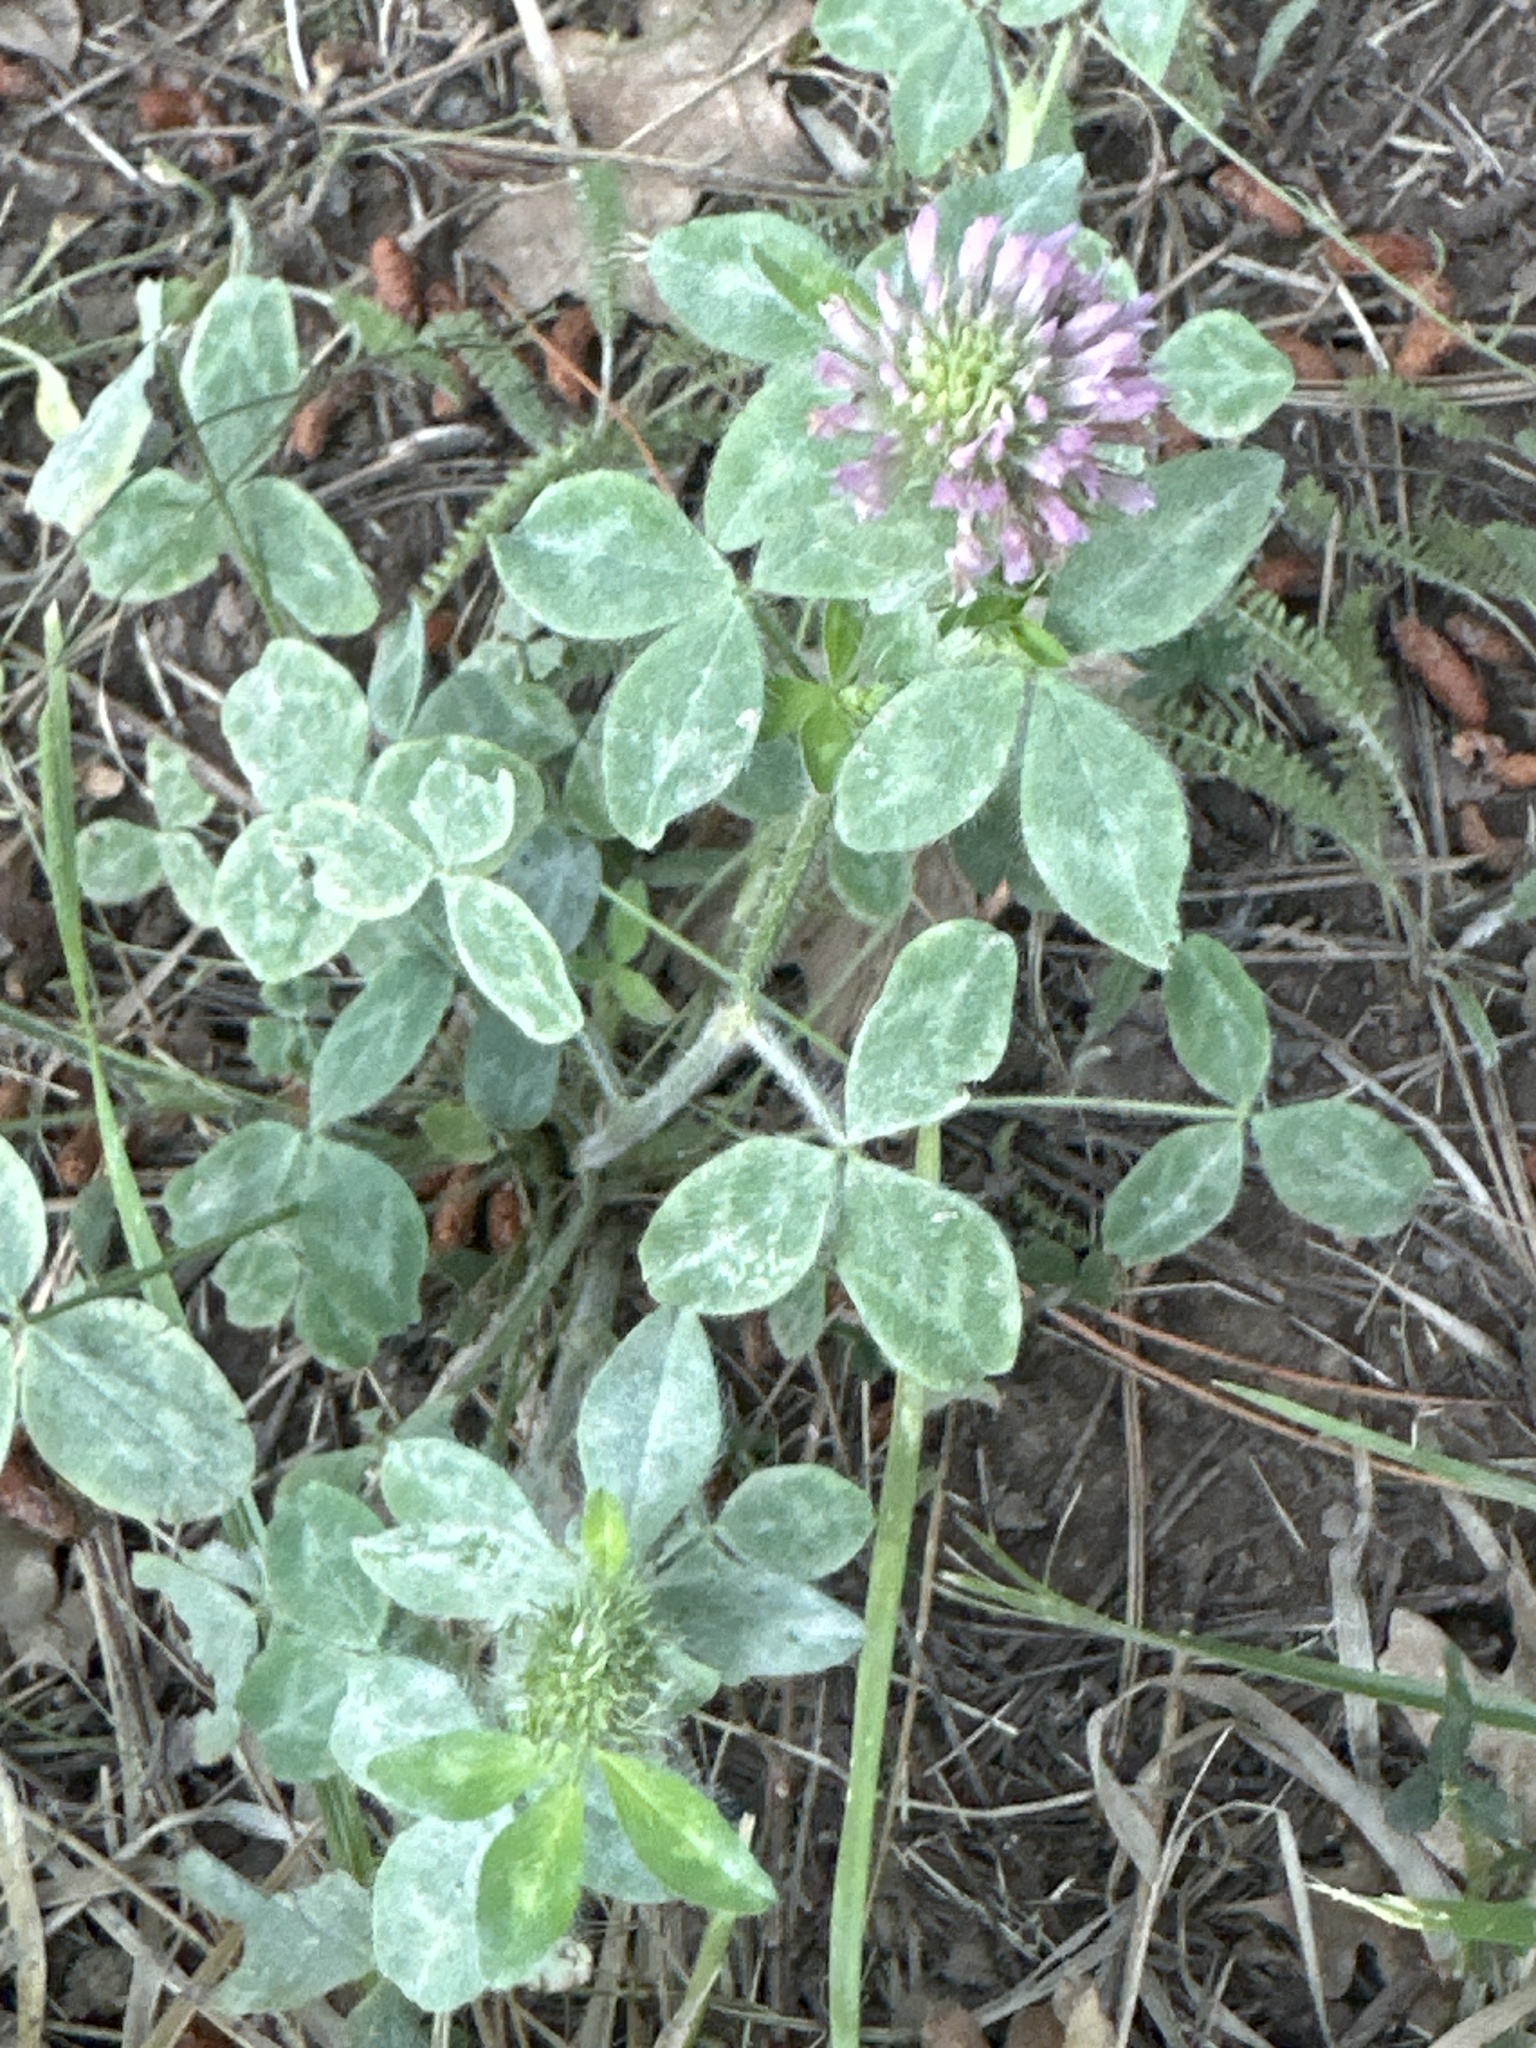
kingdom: Plantae
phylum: Tracheophyta
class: Magnoliopsida
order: Fabales
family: Fabaceae
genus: Trifolium
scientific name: Trifolium pratense
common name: Red clover
